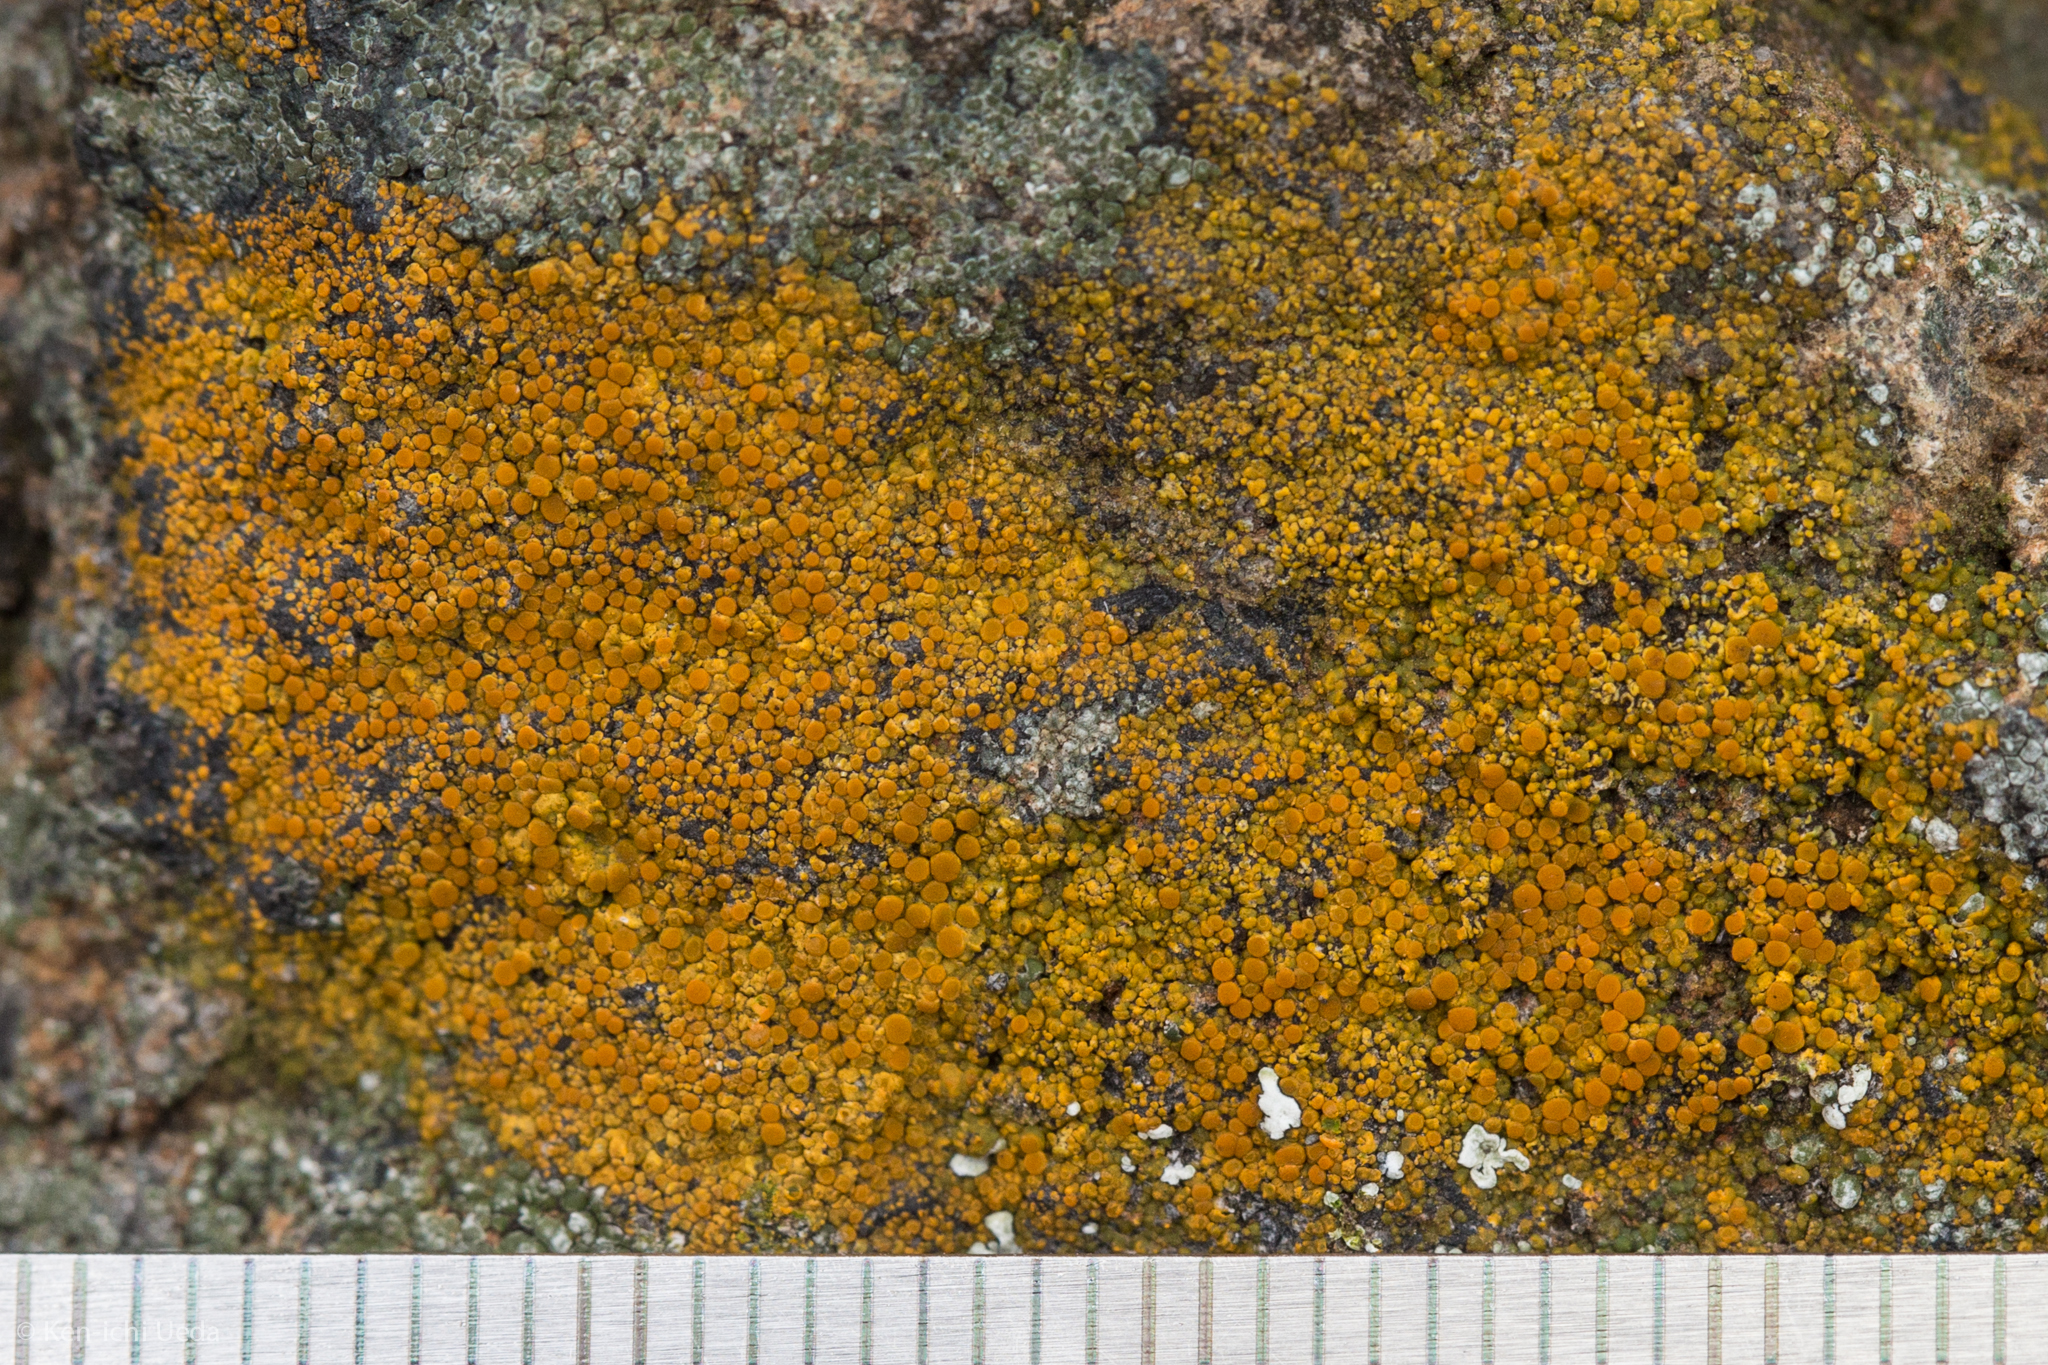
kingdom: Fungi
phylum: Ascomycota
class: Lecanoromycetes
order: Teloschistales
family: Teloschistaceae
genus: Squamulea
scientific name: Squamulea subsoluta
